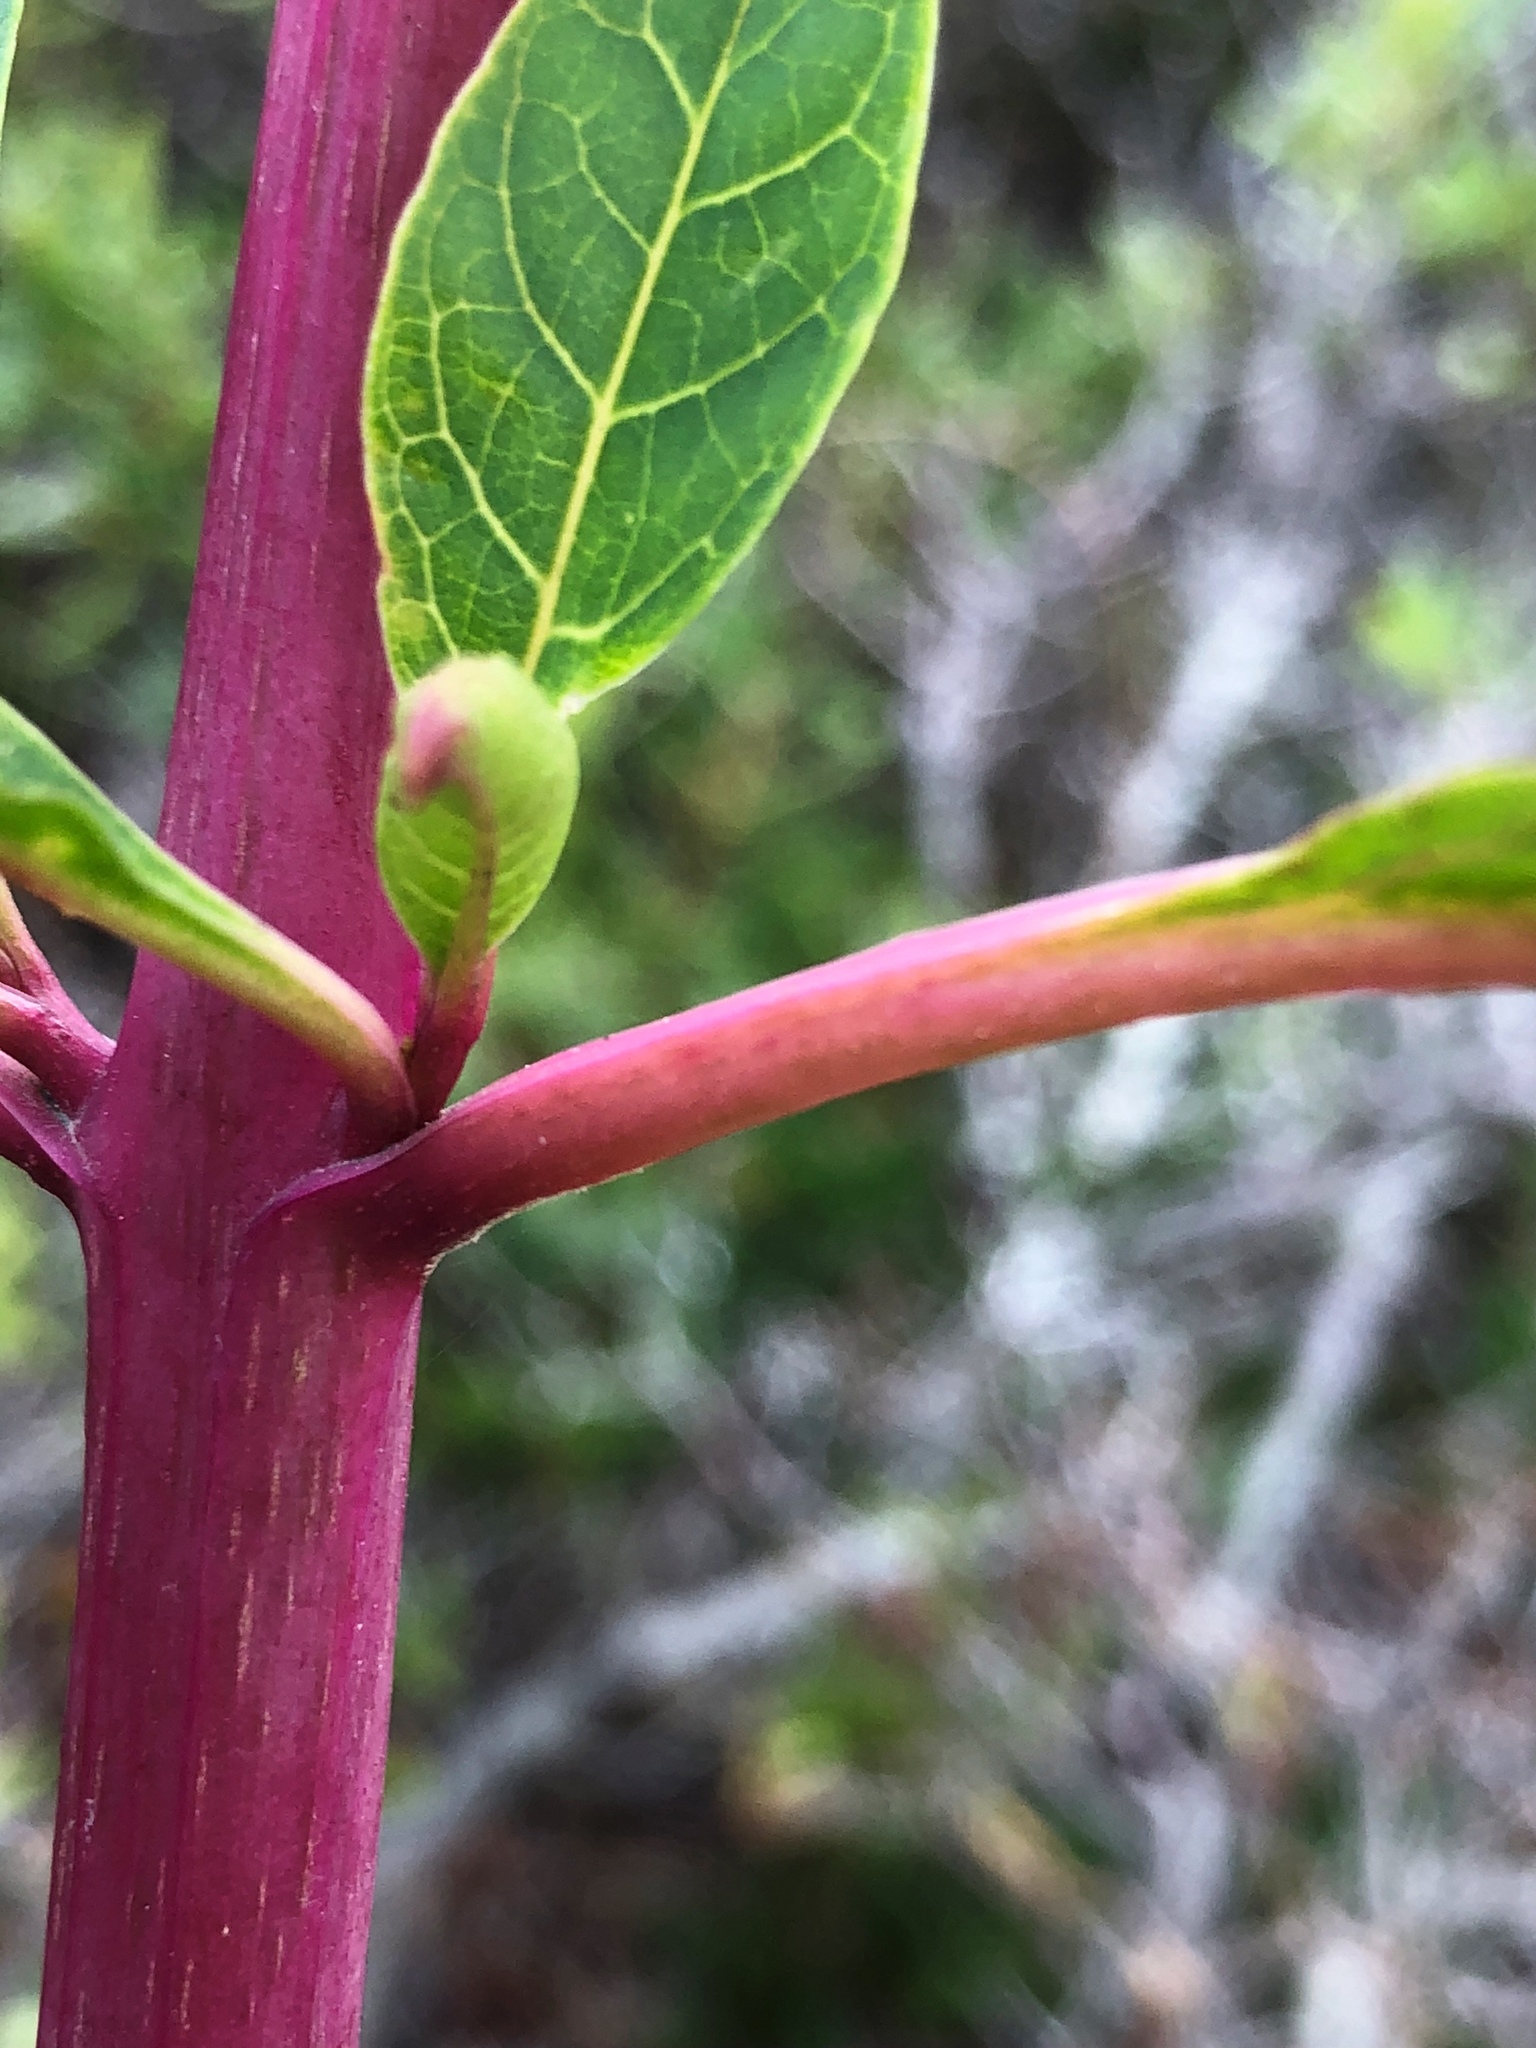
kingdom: Plantae
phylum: Tracheophyta
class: Magnoliopsida
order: Caryophyllales
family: Phytolaccaceae
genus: Phytolacca
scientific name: Phytolacca americana
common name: American pokeweed
